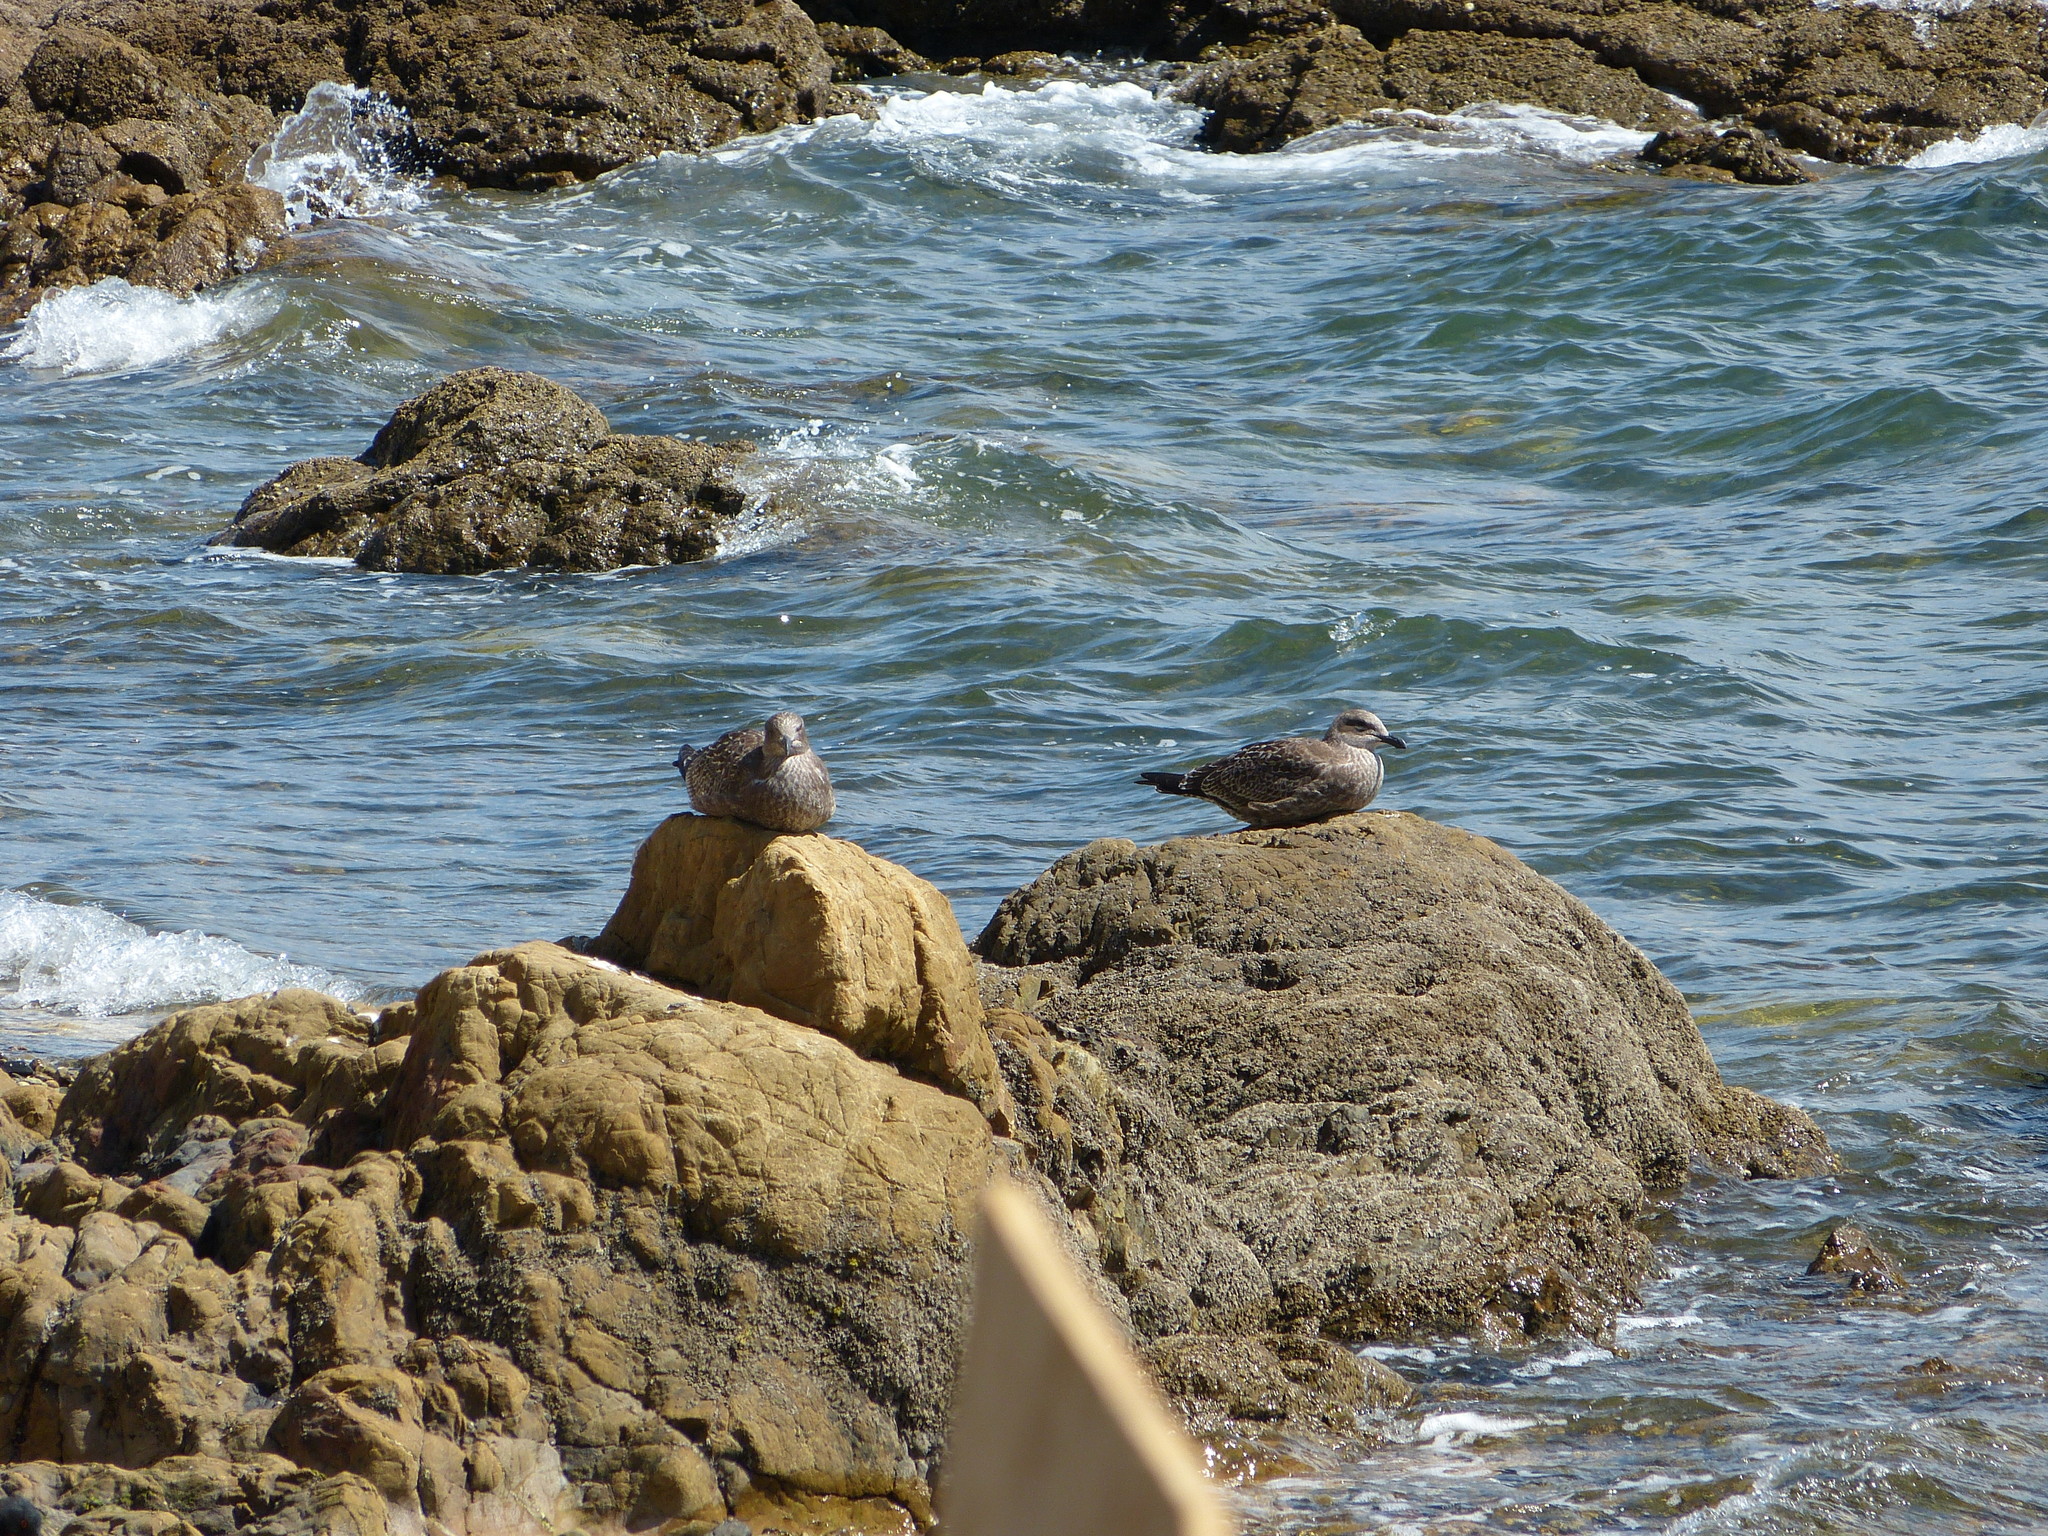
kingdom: Animalia
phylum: Chordata
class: Aves
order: Charadriiformes
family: Laridae
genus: Larus
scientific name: Larus dominicanus
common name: Kelp gull
